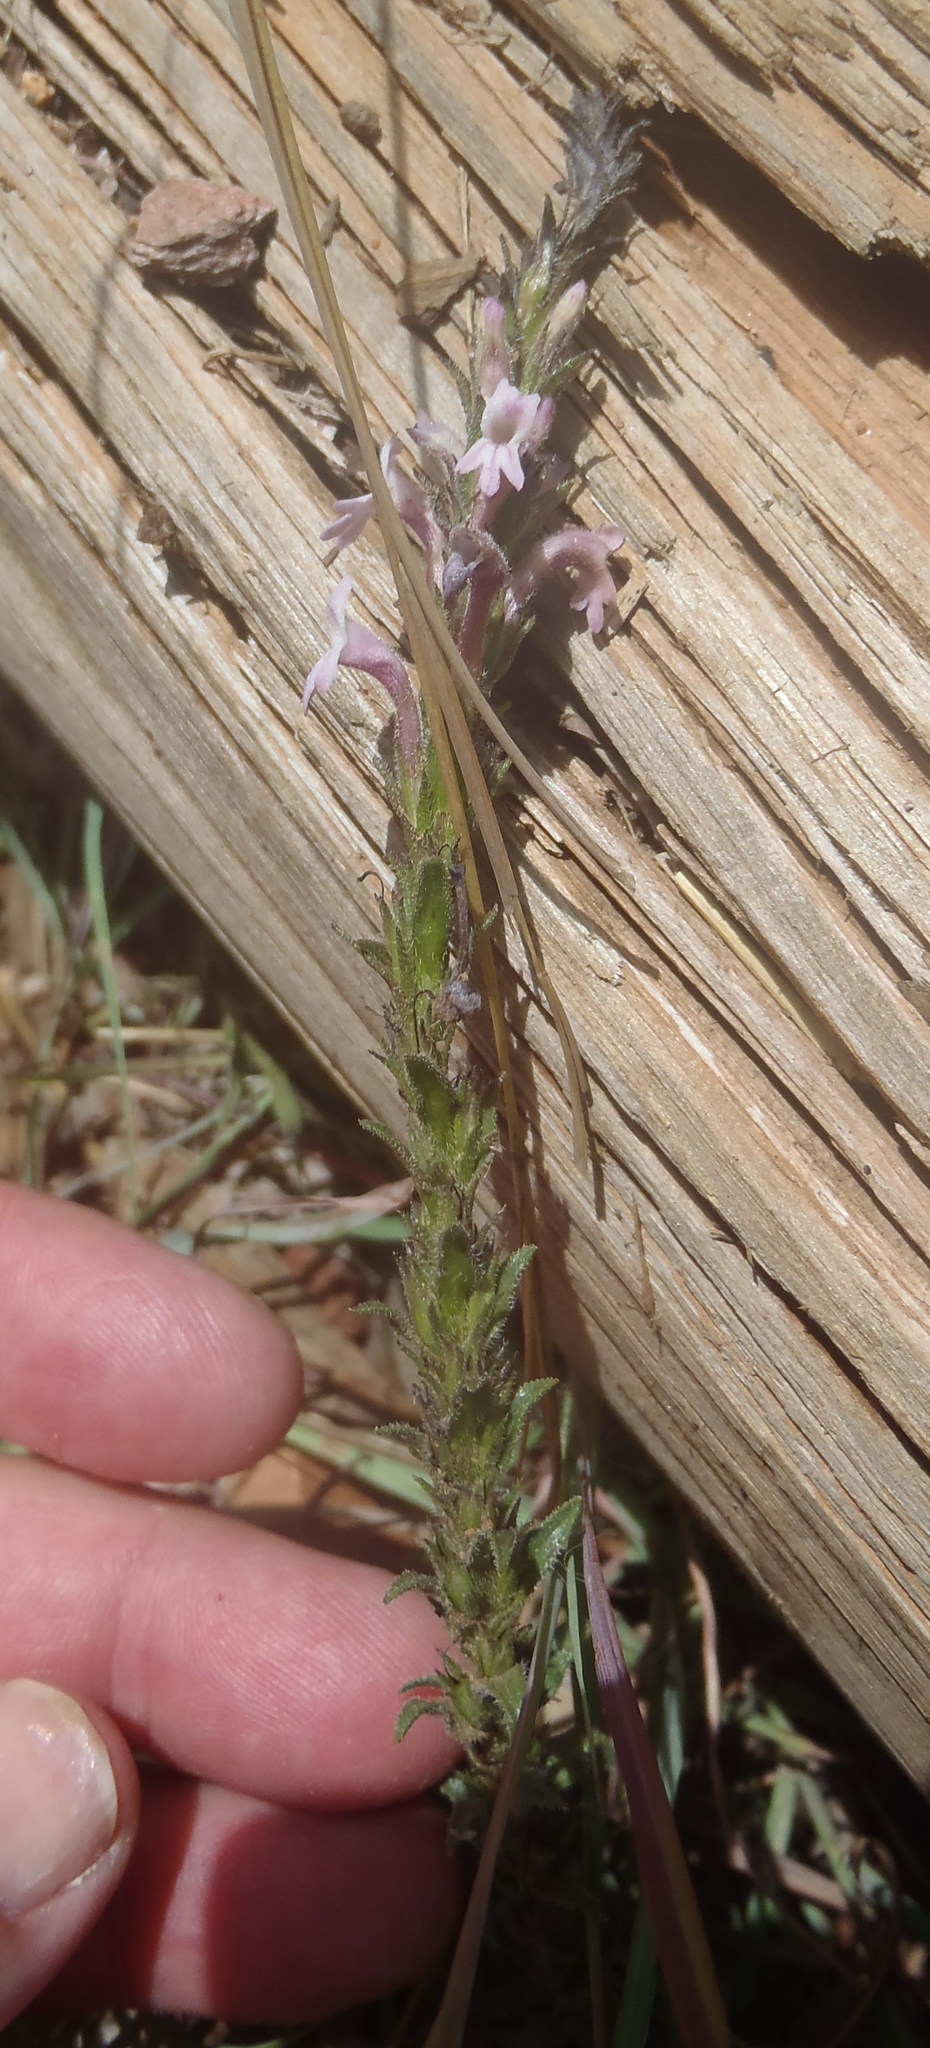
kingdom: Plantae
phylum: Tracheophyta
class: Magnoliopsida
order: Lamiales
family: Orobanchaceae
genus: Striga
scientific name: Striga bilabiata
